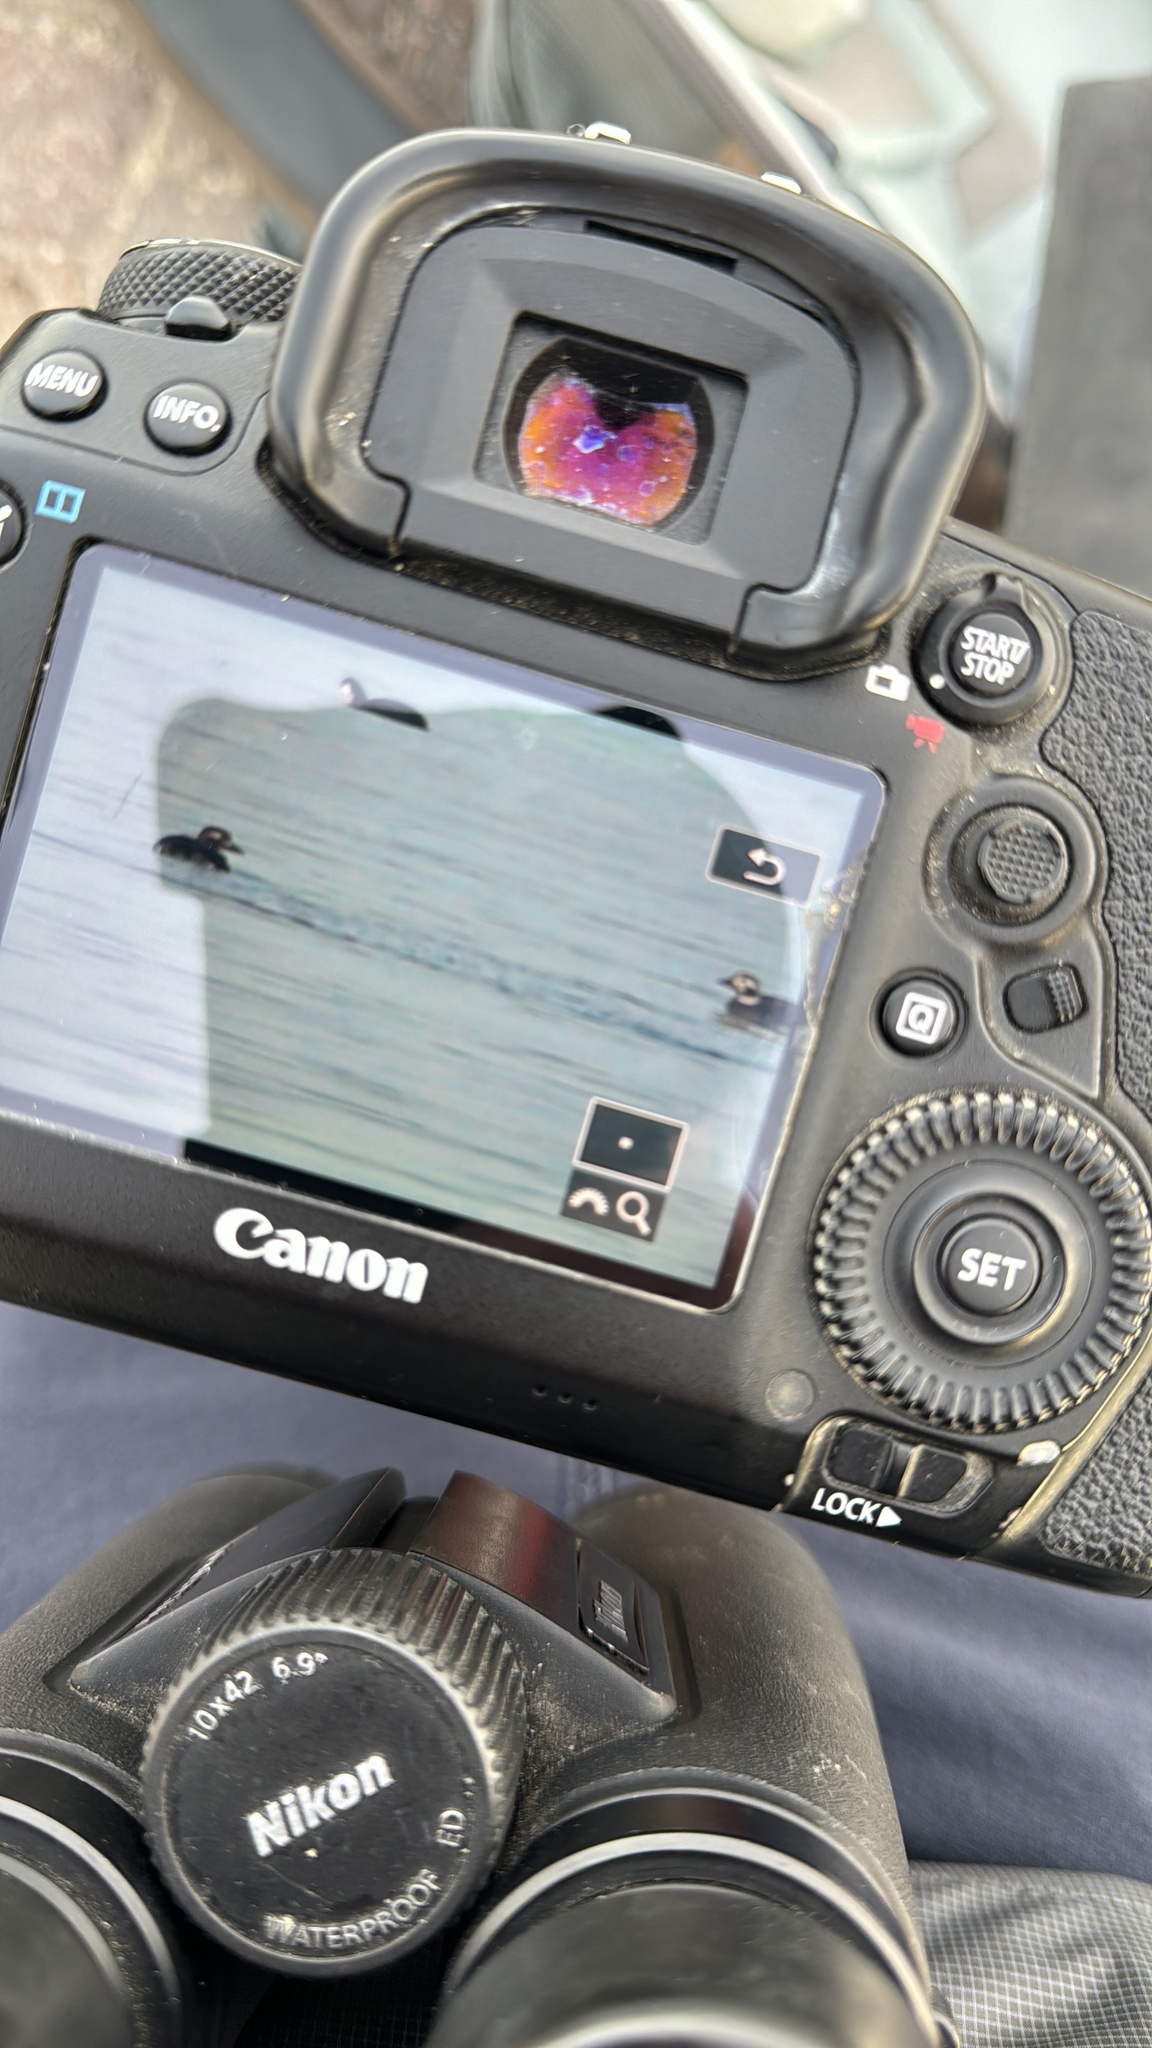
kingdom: Animalia
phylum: Chordata
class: Aves
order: Anseriformes
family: Anatidae
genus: Clangula
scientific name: Clangula hyemalis
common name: Long-tailed duck
